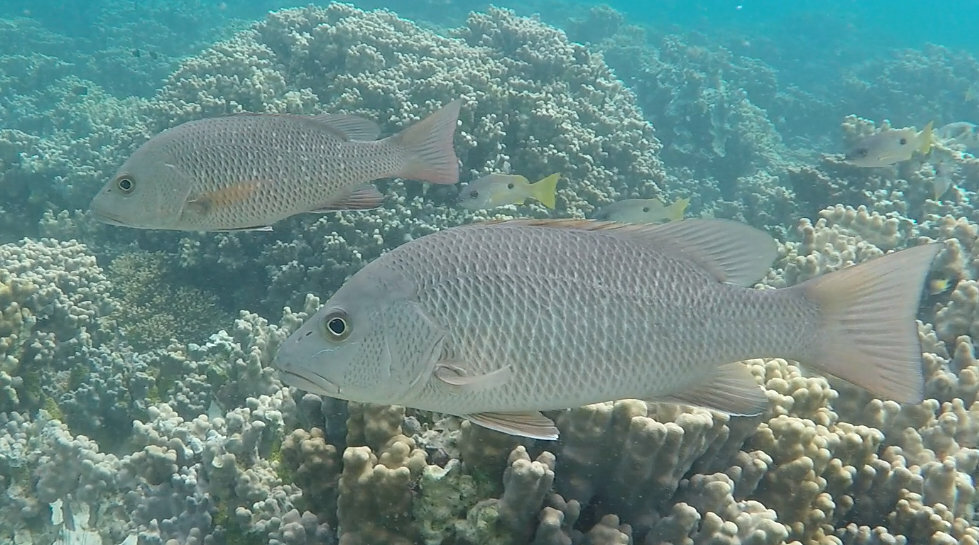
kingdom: Animalia
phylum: Chordata
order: Perciformes
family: Lutjanidae
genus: Lutjanus
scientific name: Lutjanus argentimaculatus
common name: Mangrove red snapper
